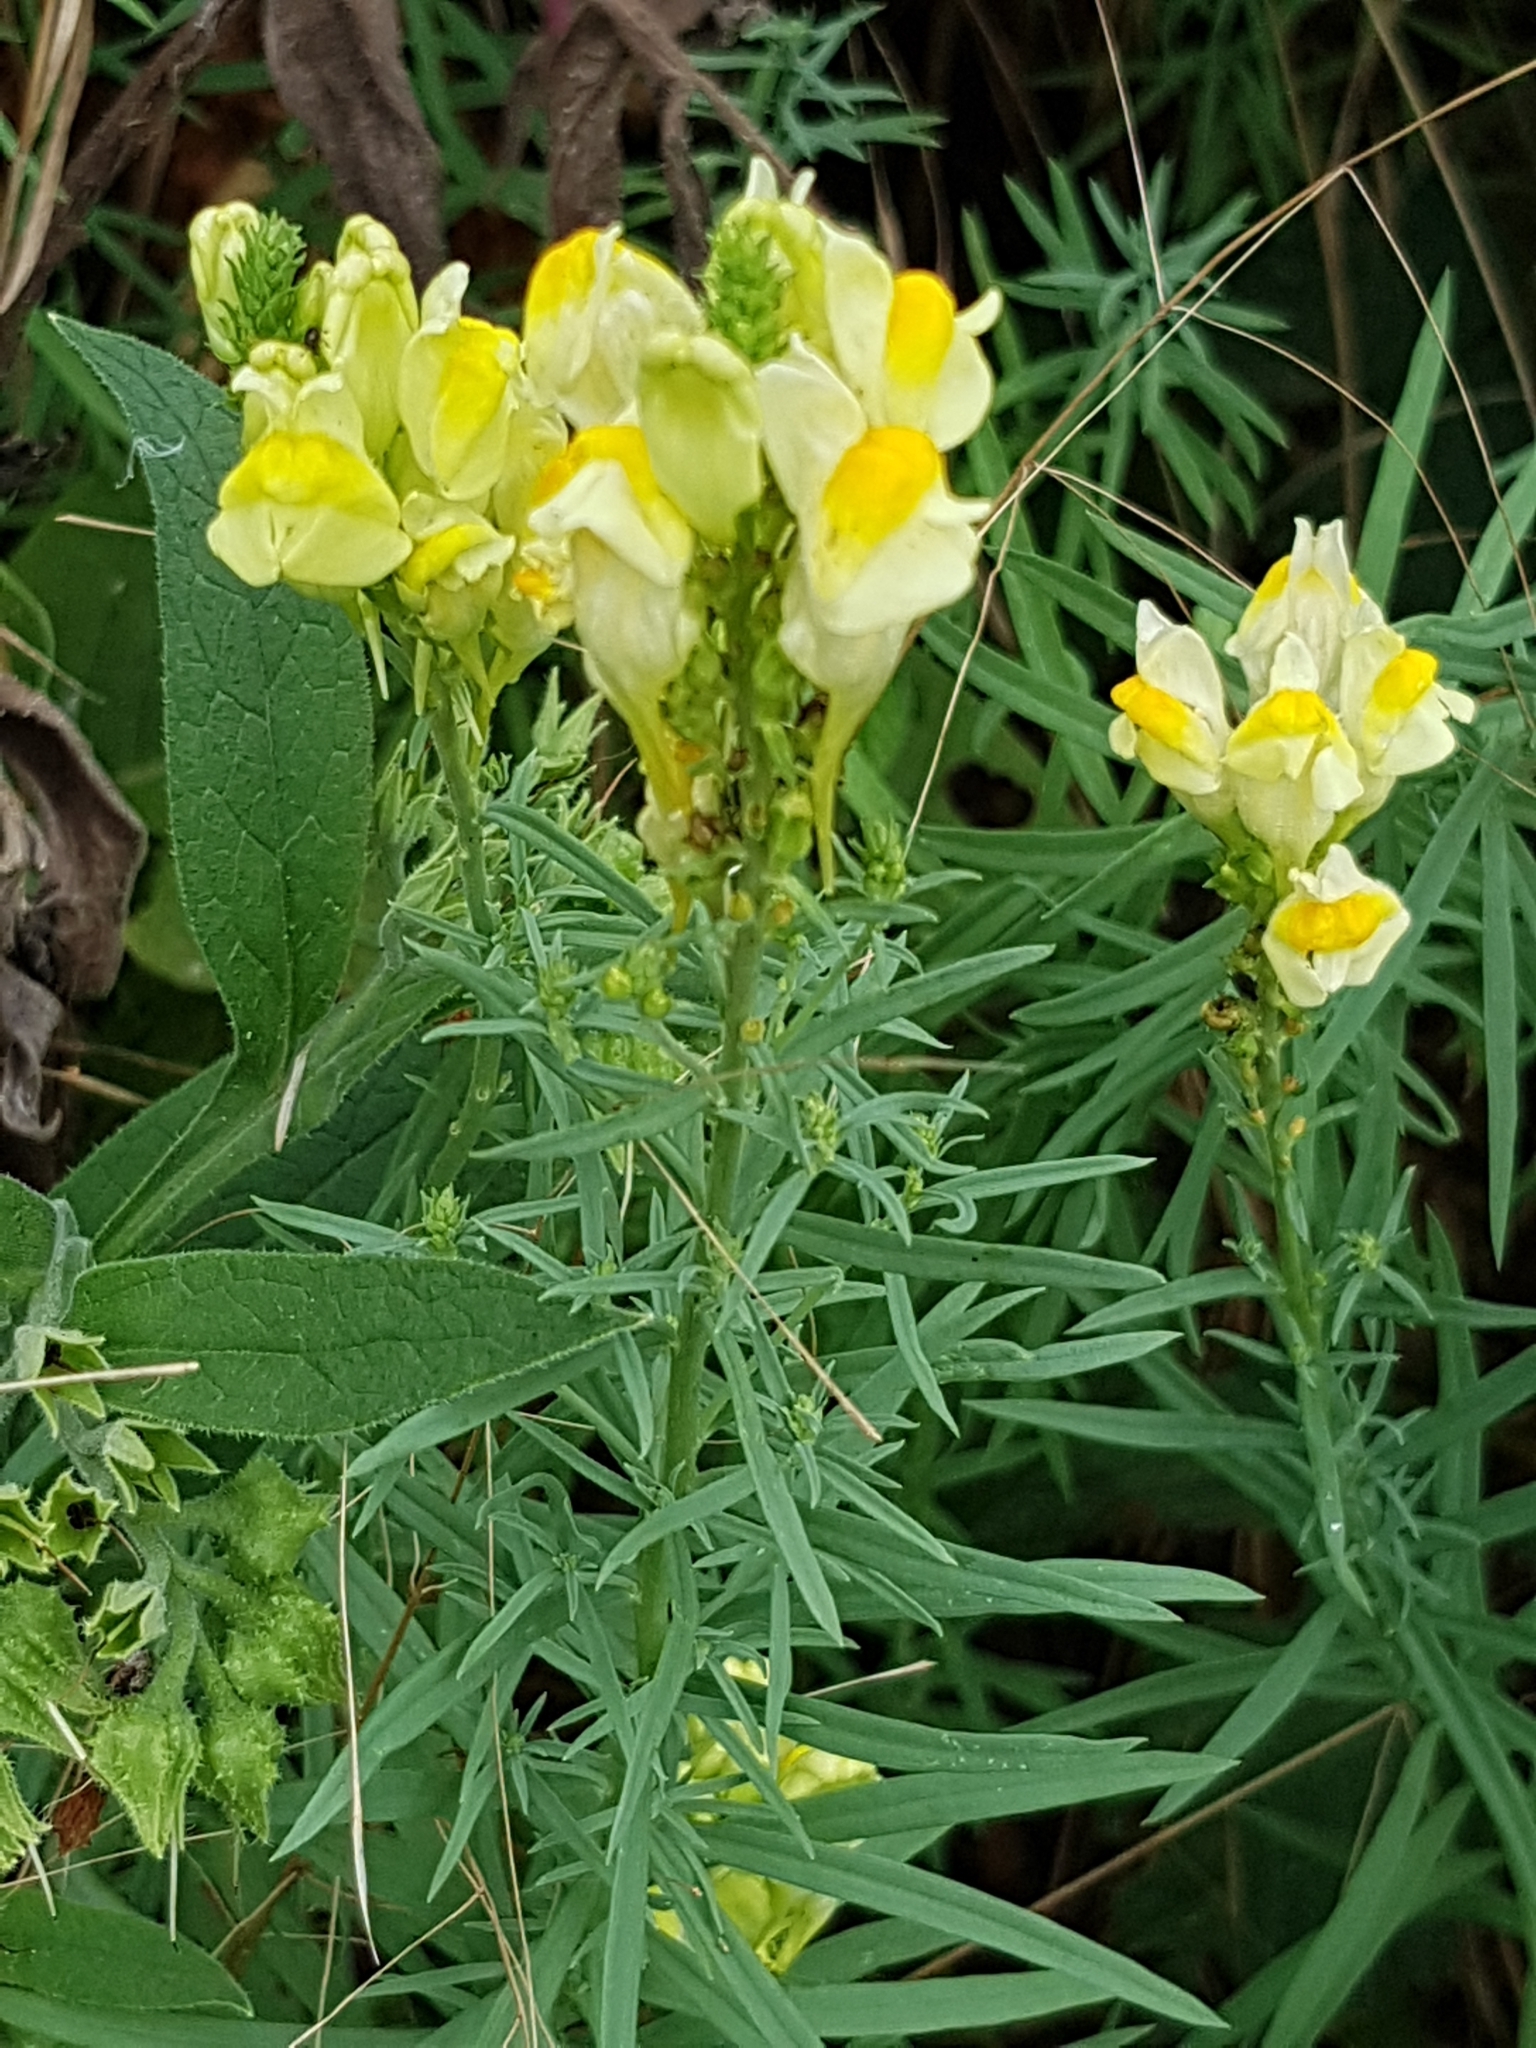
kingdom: Plantae
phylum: Tracheophyta
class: Magnoliopsida
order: Lamiales
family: Plantaginaceae
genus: Linaria
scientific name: Linaria vulgaris
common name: Butter and eggs
